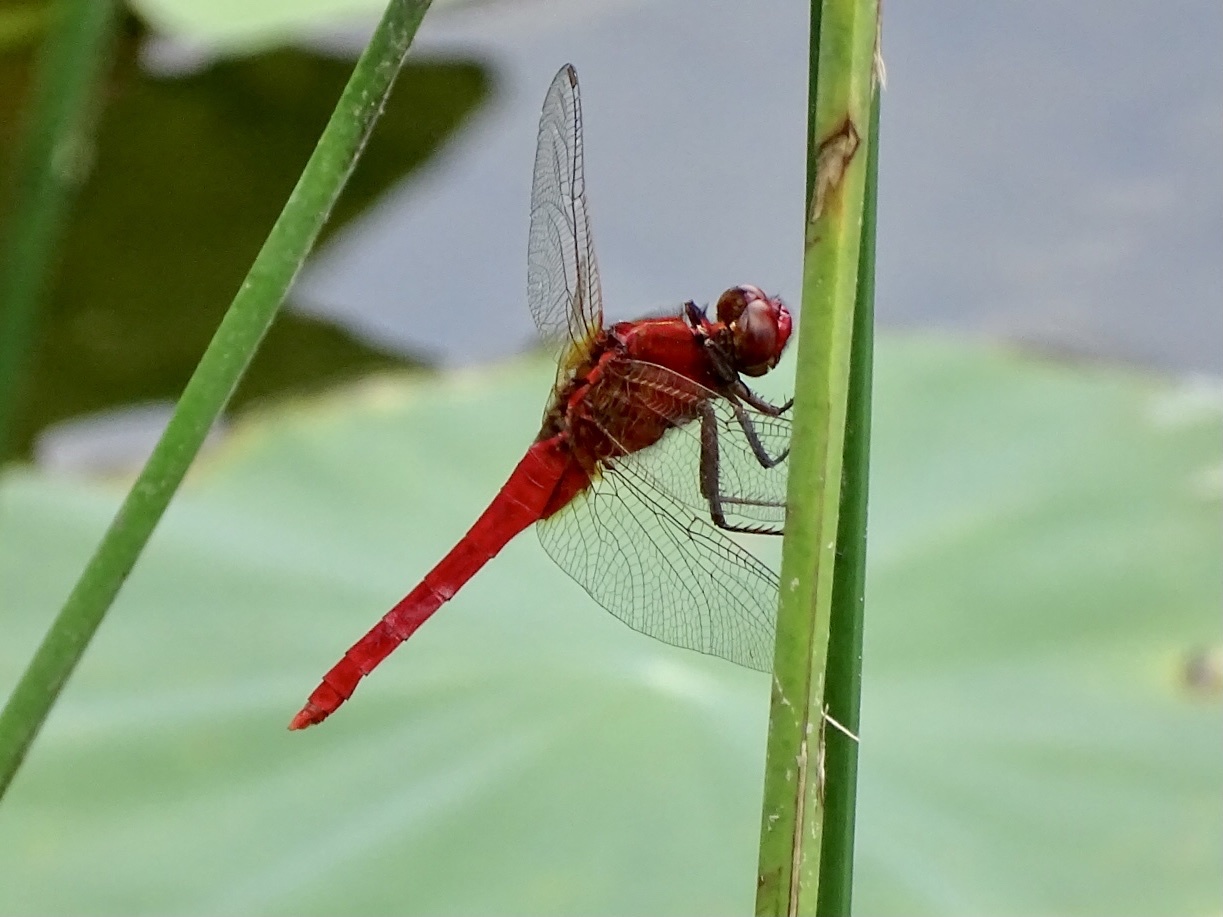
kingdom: Animalia
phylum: Arthropoda
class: Insecta
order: Odonata
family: Libellulidae
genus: Rhodothemis
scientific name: Rhodothemis rufa
